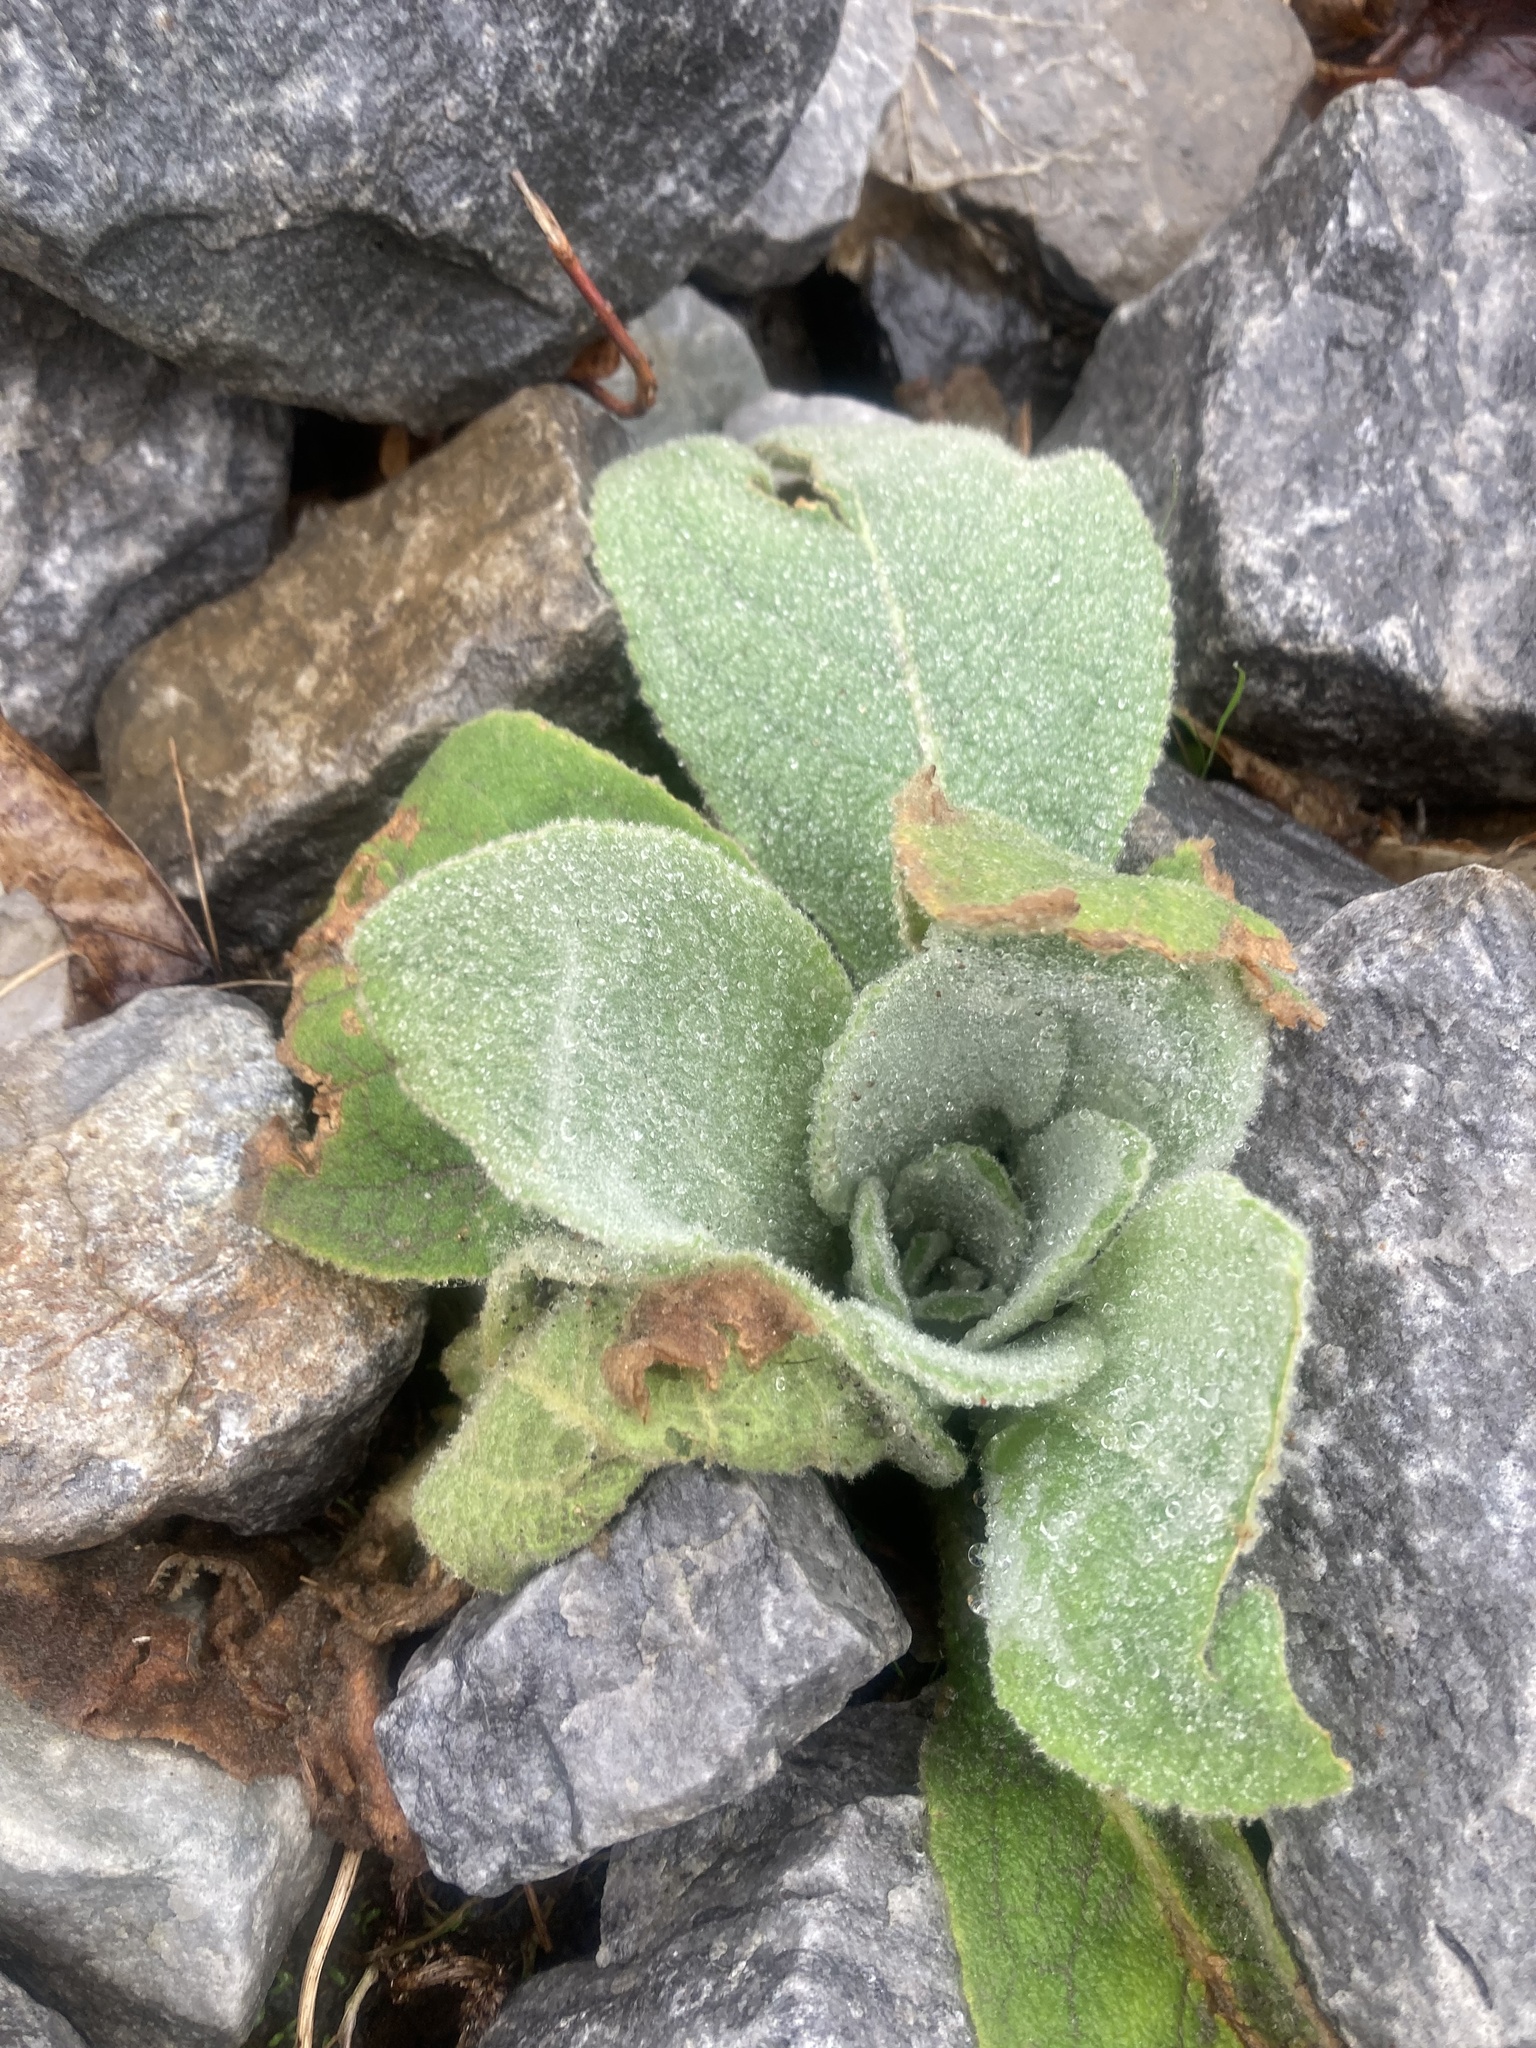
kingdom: Plantae
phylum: Tracheophyta
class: Magnoliopsida
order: Lamiales
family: Scrophulariaceae
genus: Verbascum
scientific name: Verbascum thapsus
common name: Common mullein
